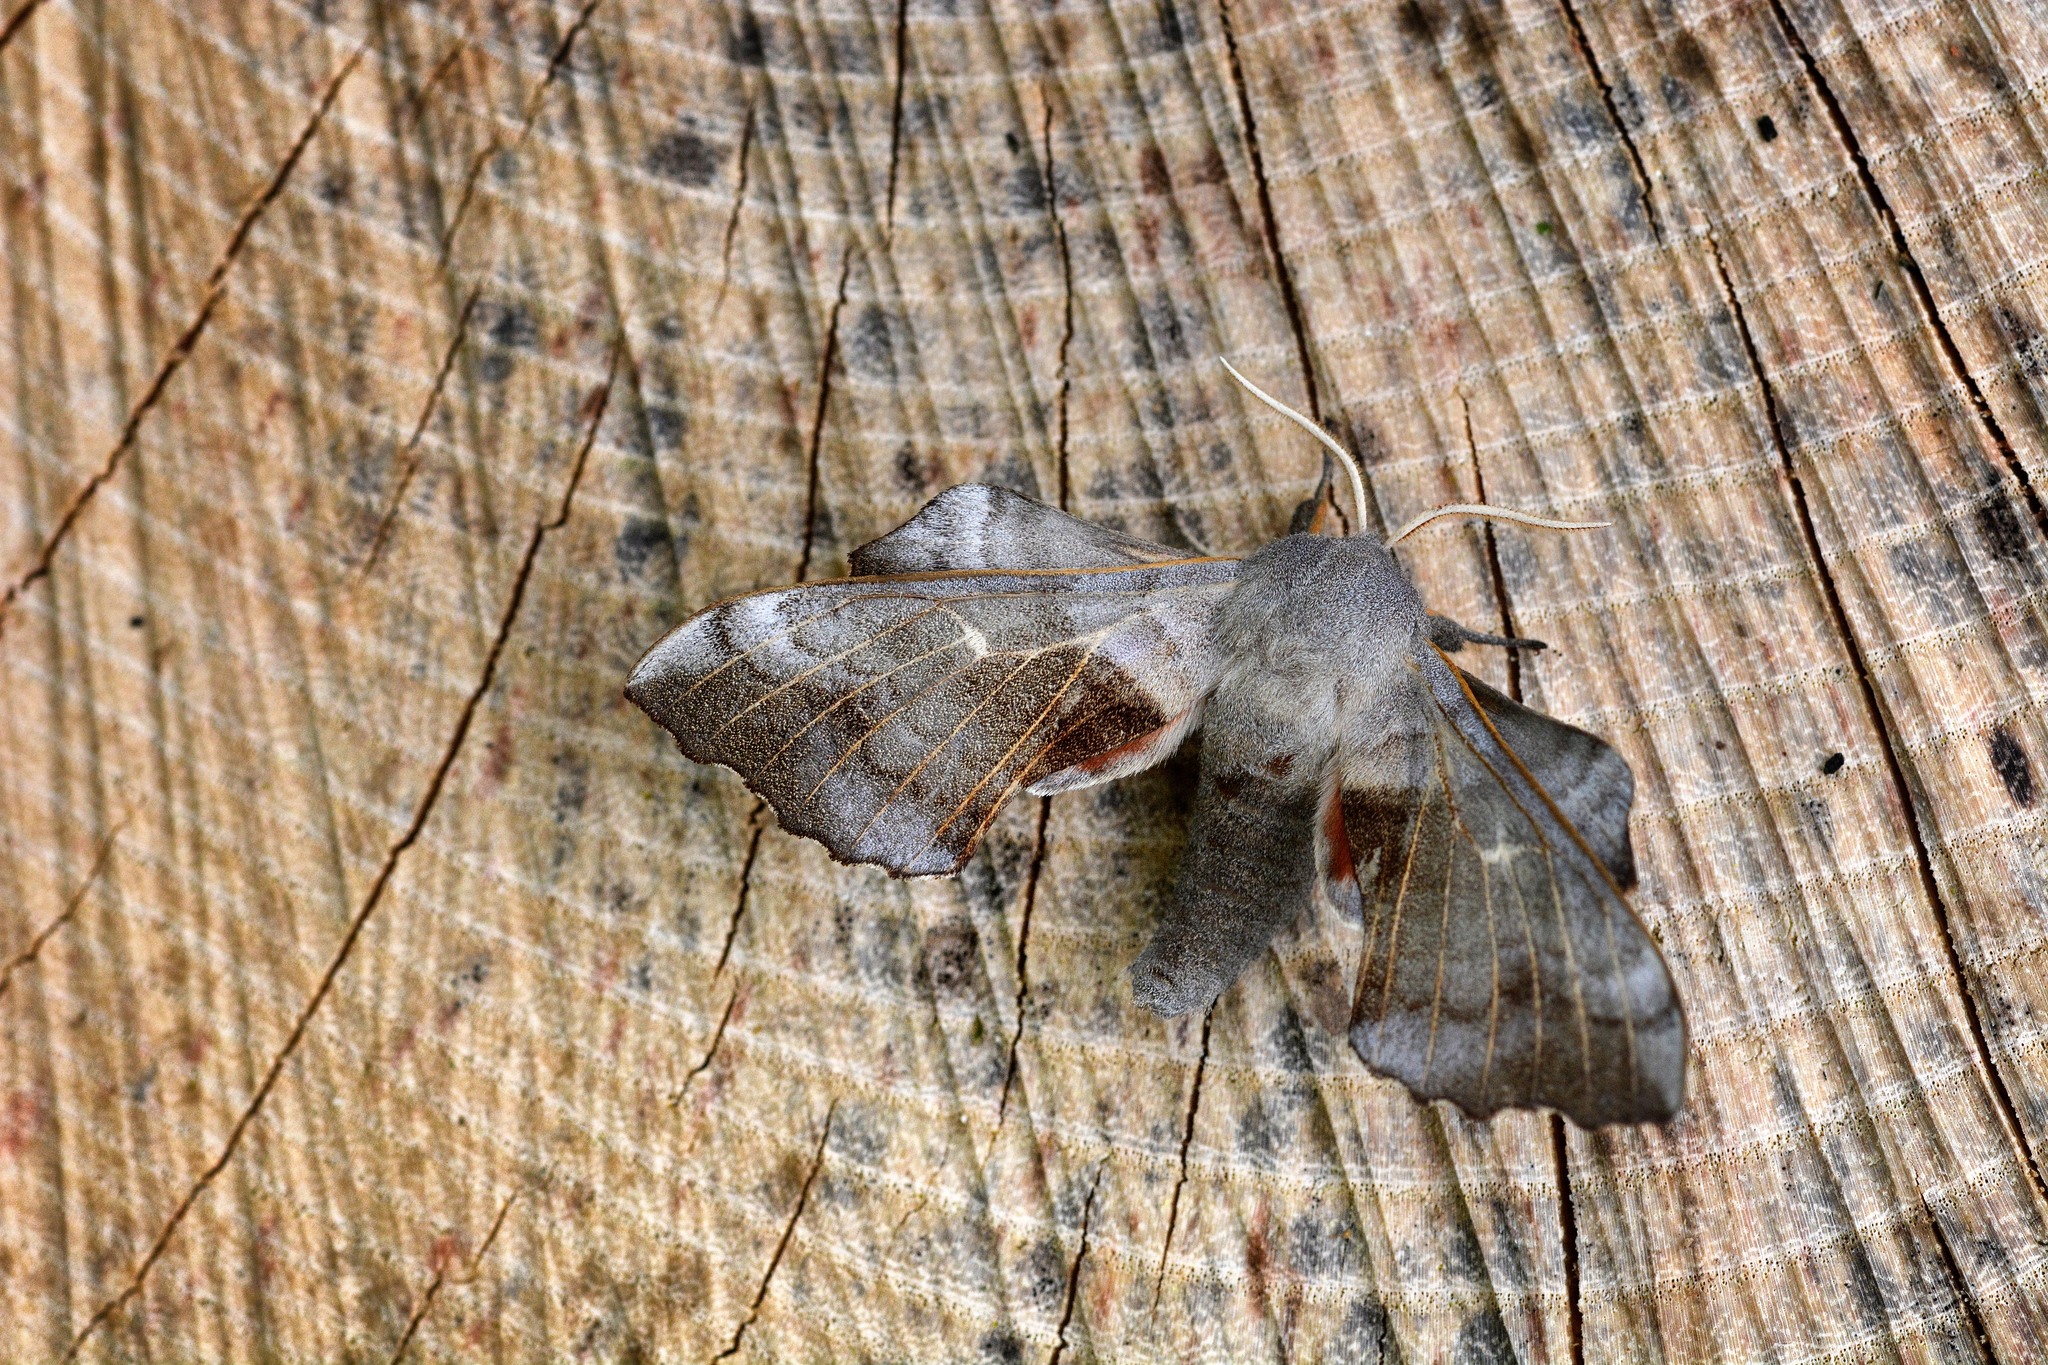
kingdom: Animalia
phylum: Arthropoda
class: Insecta
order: Lepidoptera
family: Sphingidae
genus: Laothoe
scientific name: Laothoe populi
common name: Poplar hawk-moth
